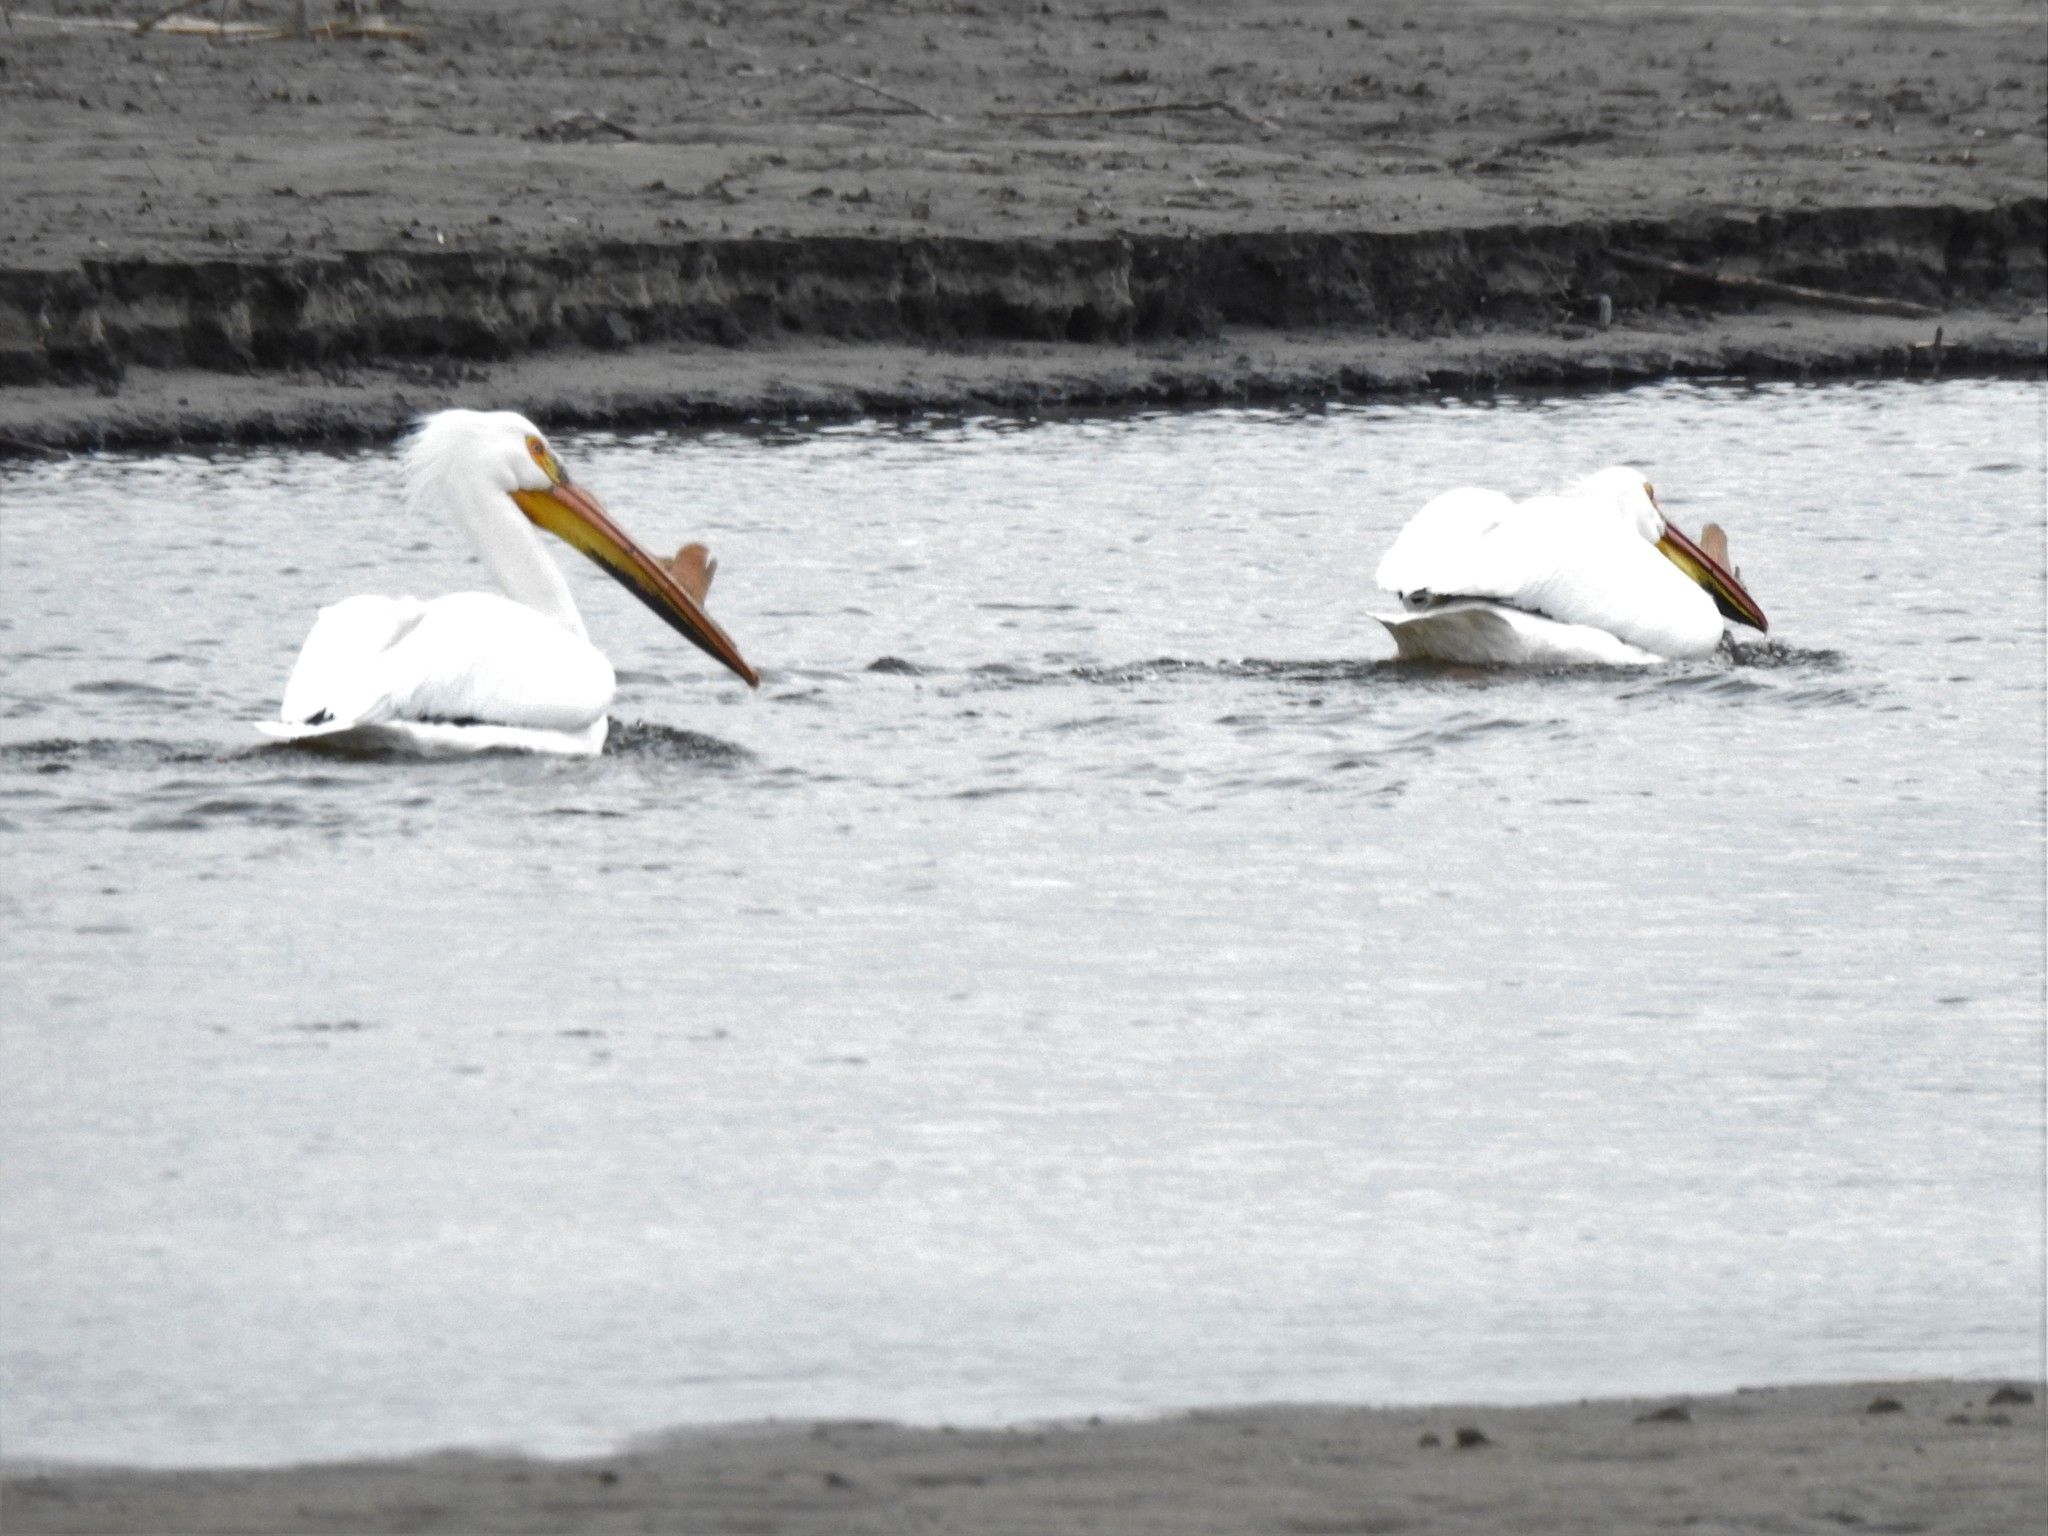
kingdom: Animalia
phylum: Chordata
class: Aves
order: Pelecaniformes
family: Pelecanidae
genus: Pelecanus
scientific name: Pelecanus erythrorhynchos
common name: American white pelican
